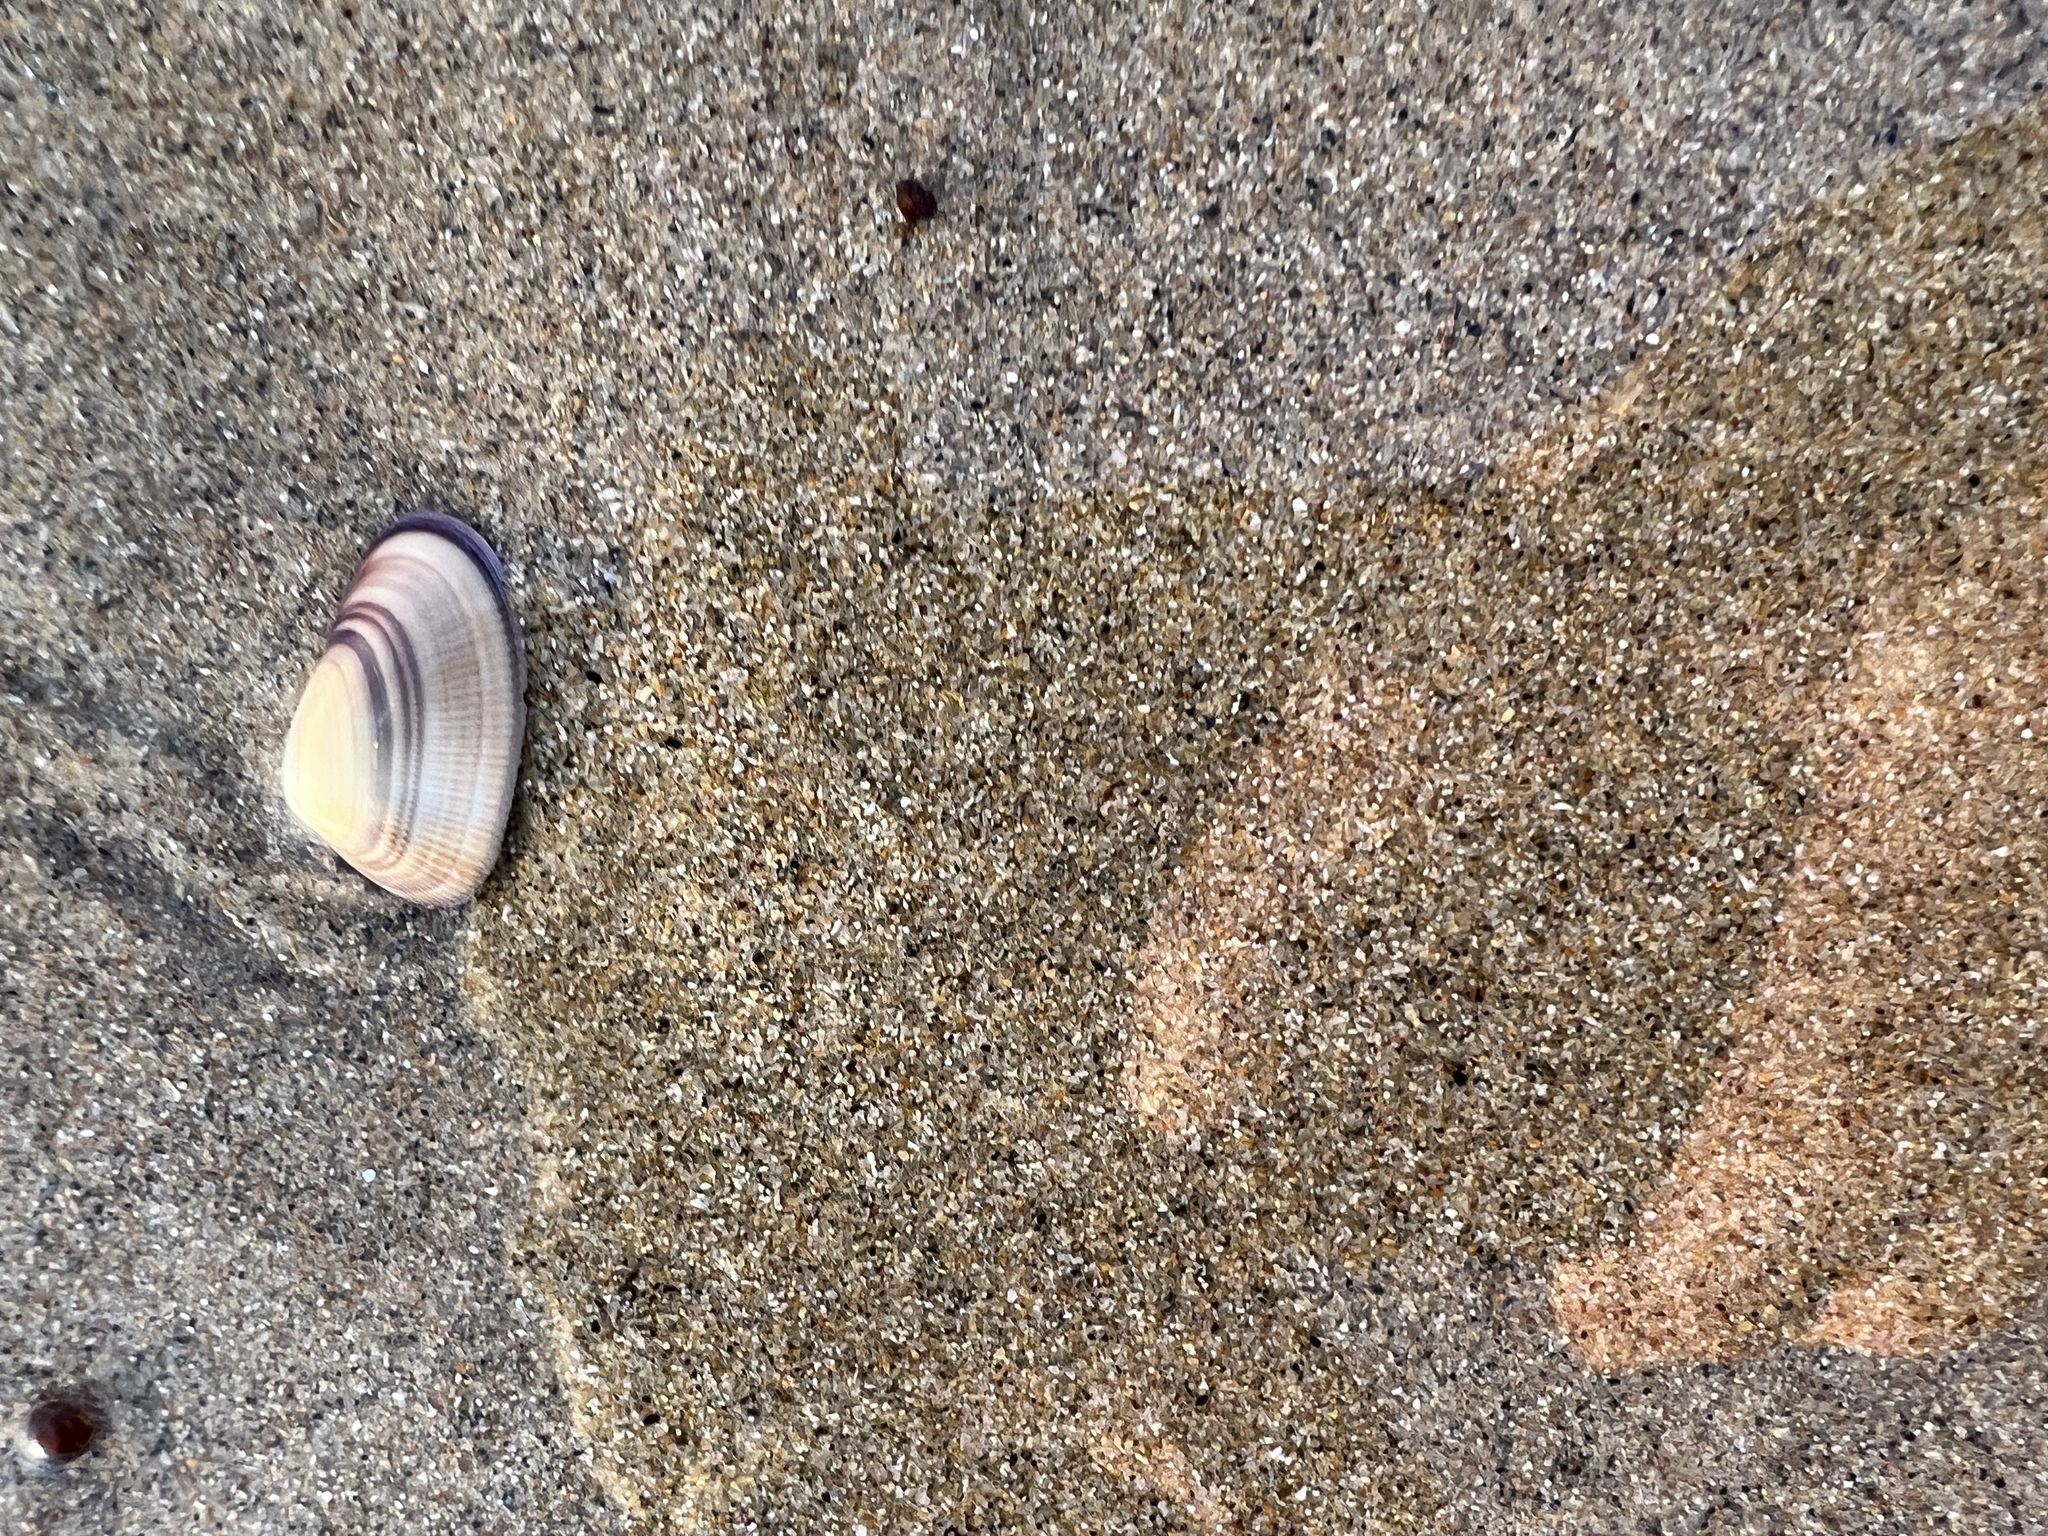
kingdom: Animalia
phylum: Mollusca
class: Bivalvia
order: Cardiida
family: Donacidae
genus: Donax
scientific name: Donax gouldii
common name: Gould beanclam
